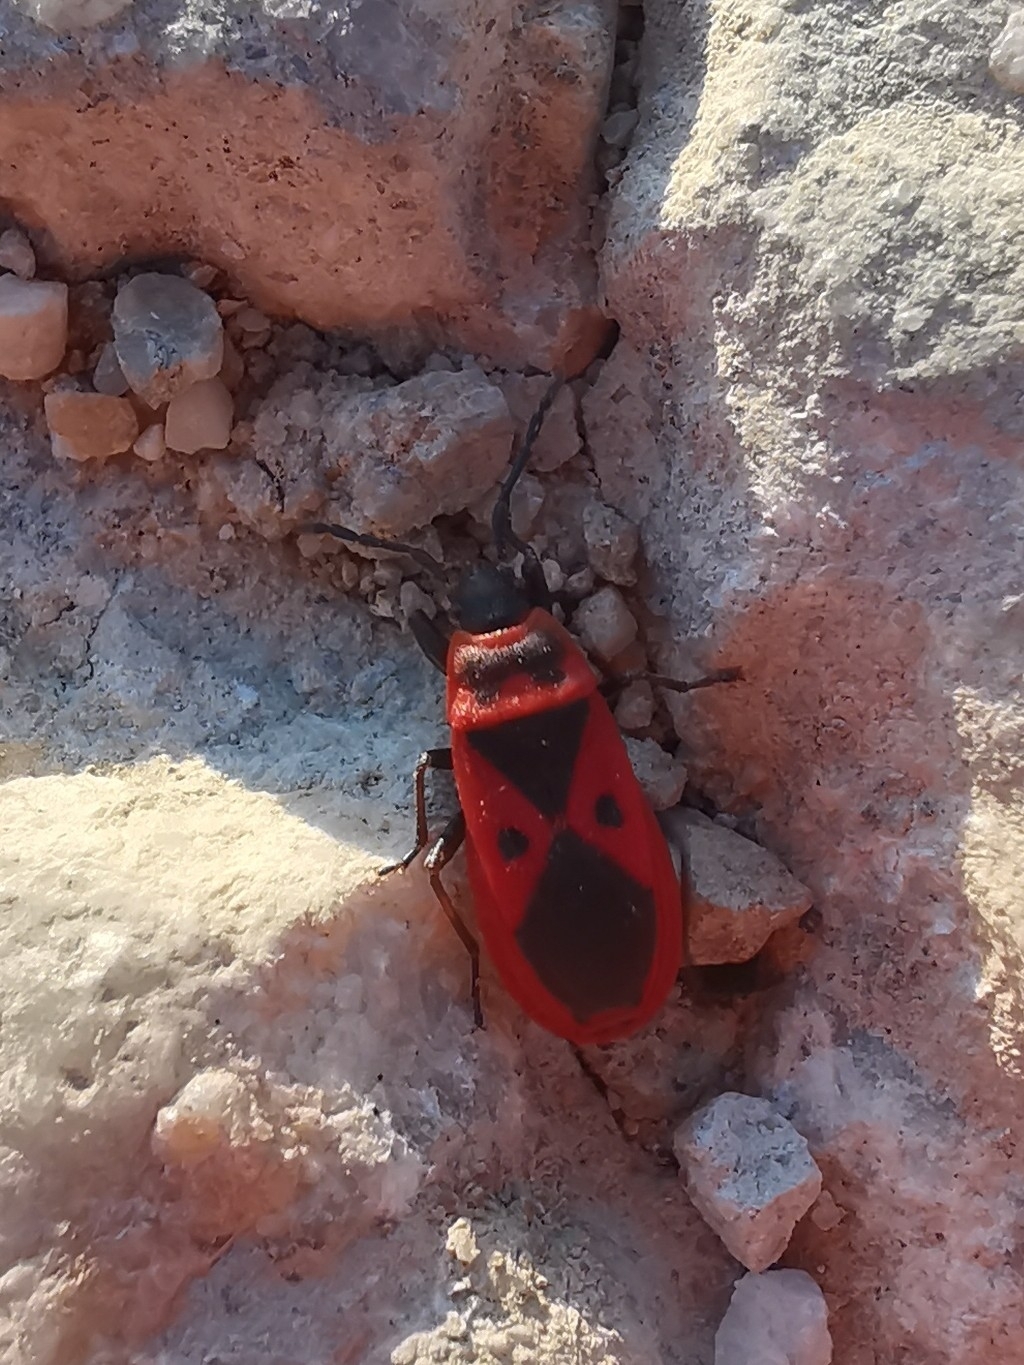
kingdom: Animalia
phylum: Arthropoda
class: Insecta
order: Hemiptera
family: Pyrrhocoridae
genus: Scantius
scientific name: Scantius aegyptius
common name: Red bug
